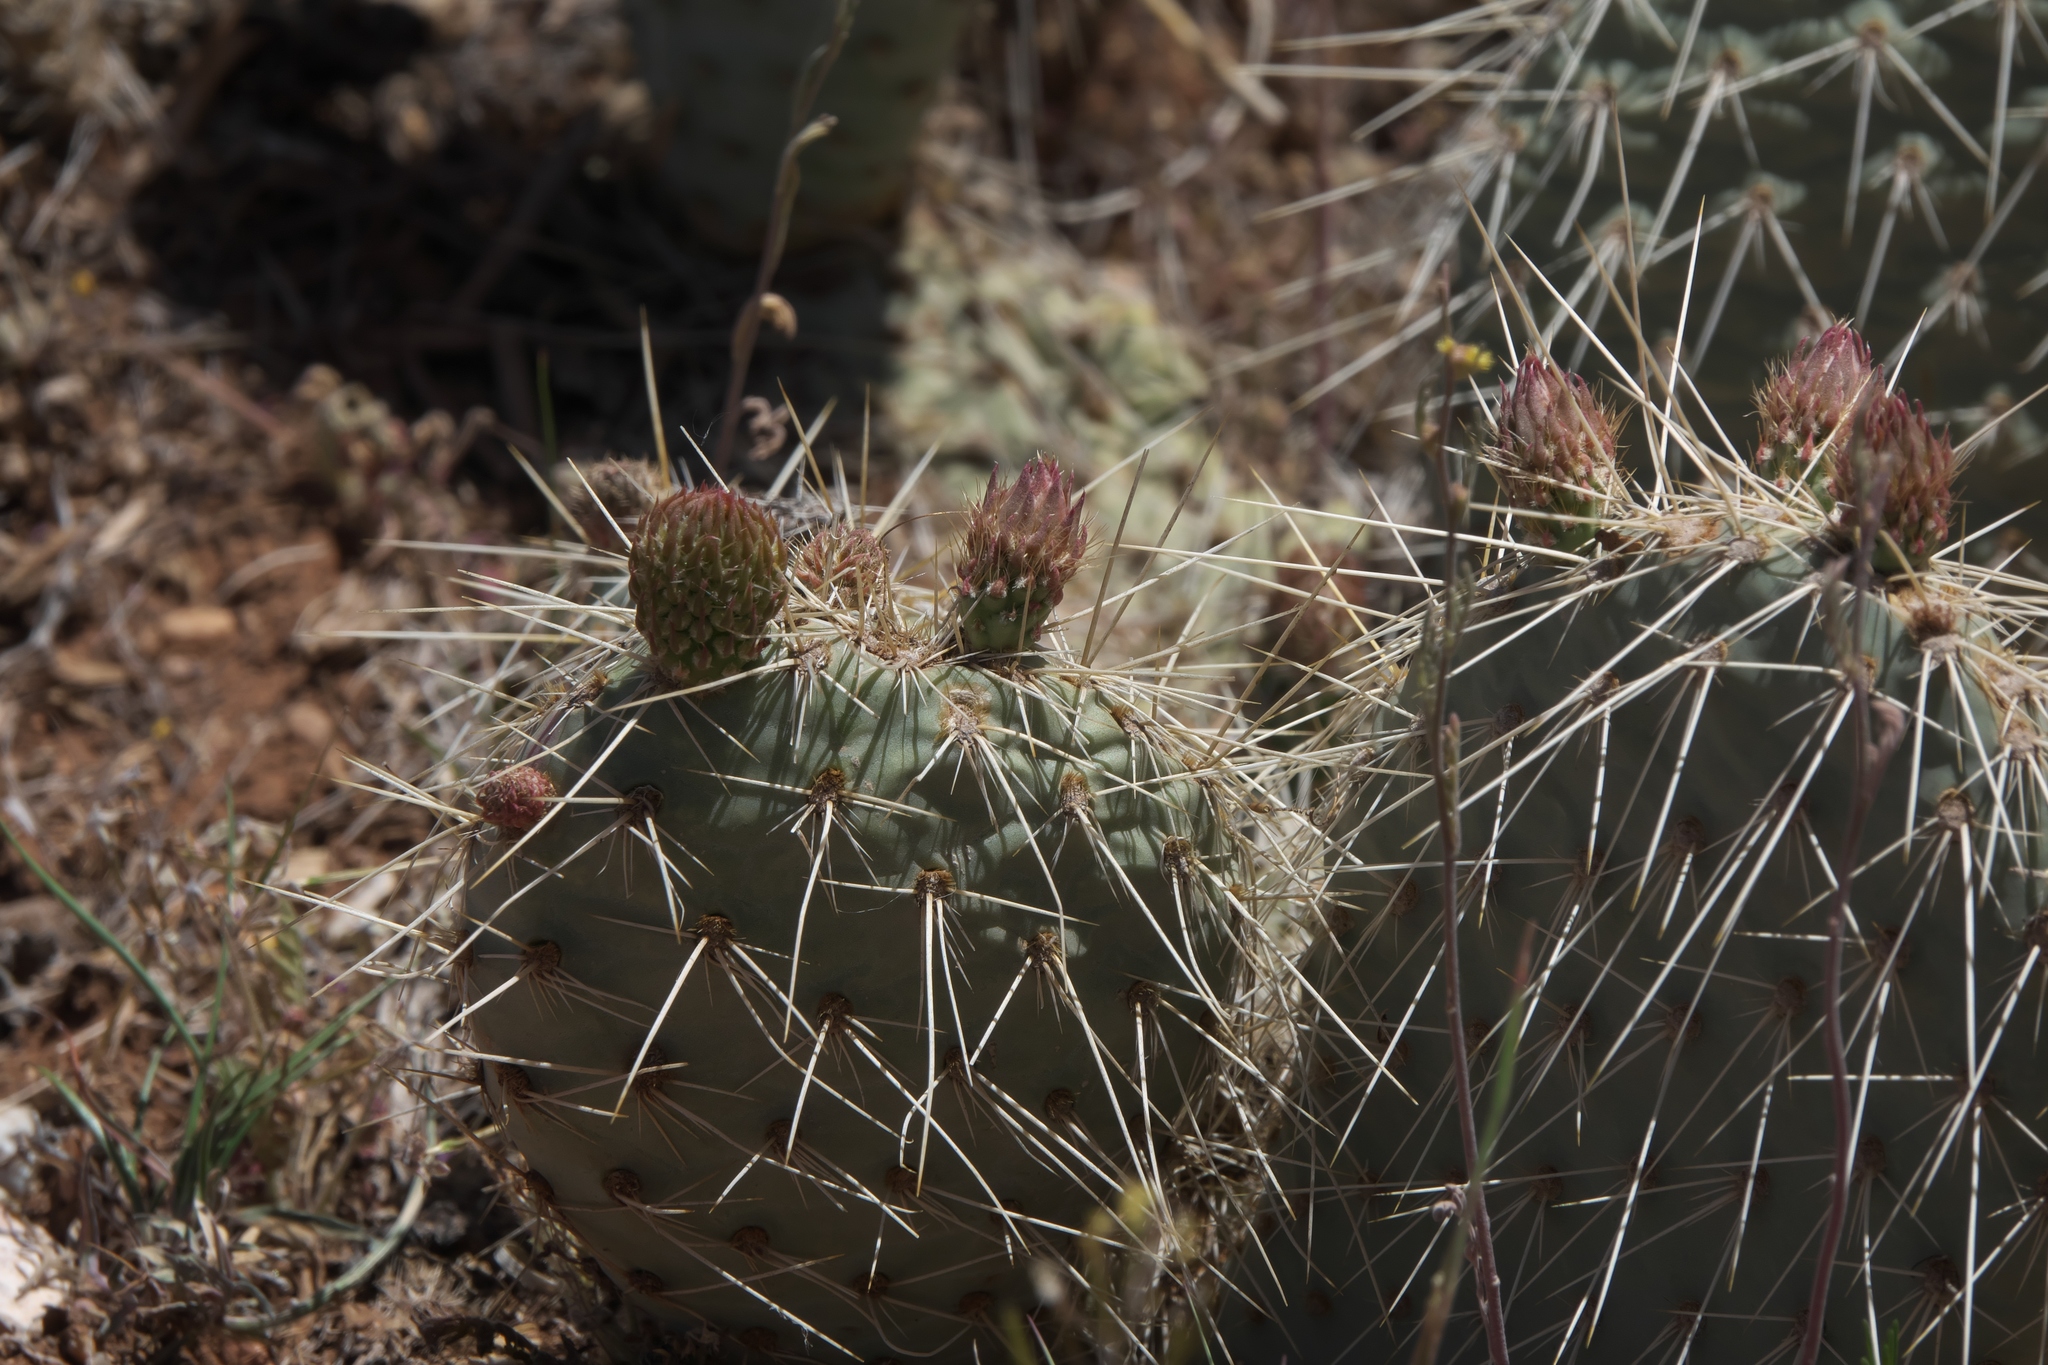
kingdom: Plantae
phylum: Tracheophyta
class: Magnoliopsida
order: Caryophyllales
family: Cactaceae
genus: Opuntia
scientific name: Opuntia polyacantha
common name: Plains prickly-pear
